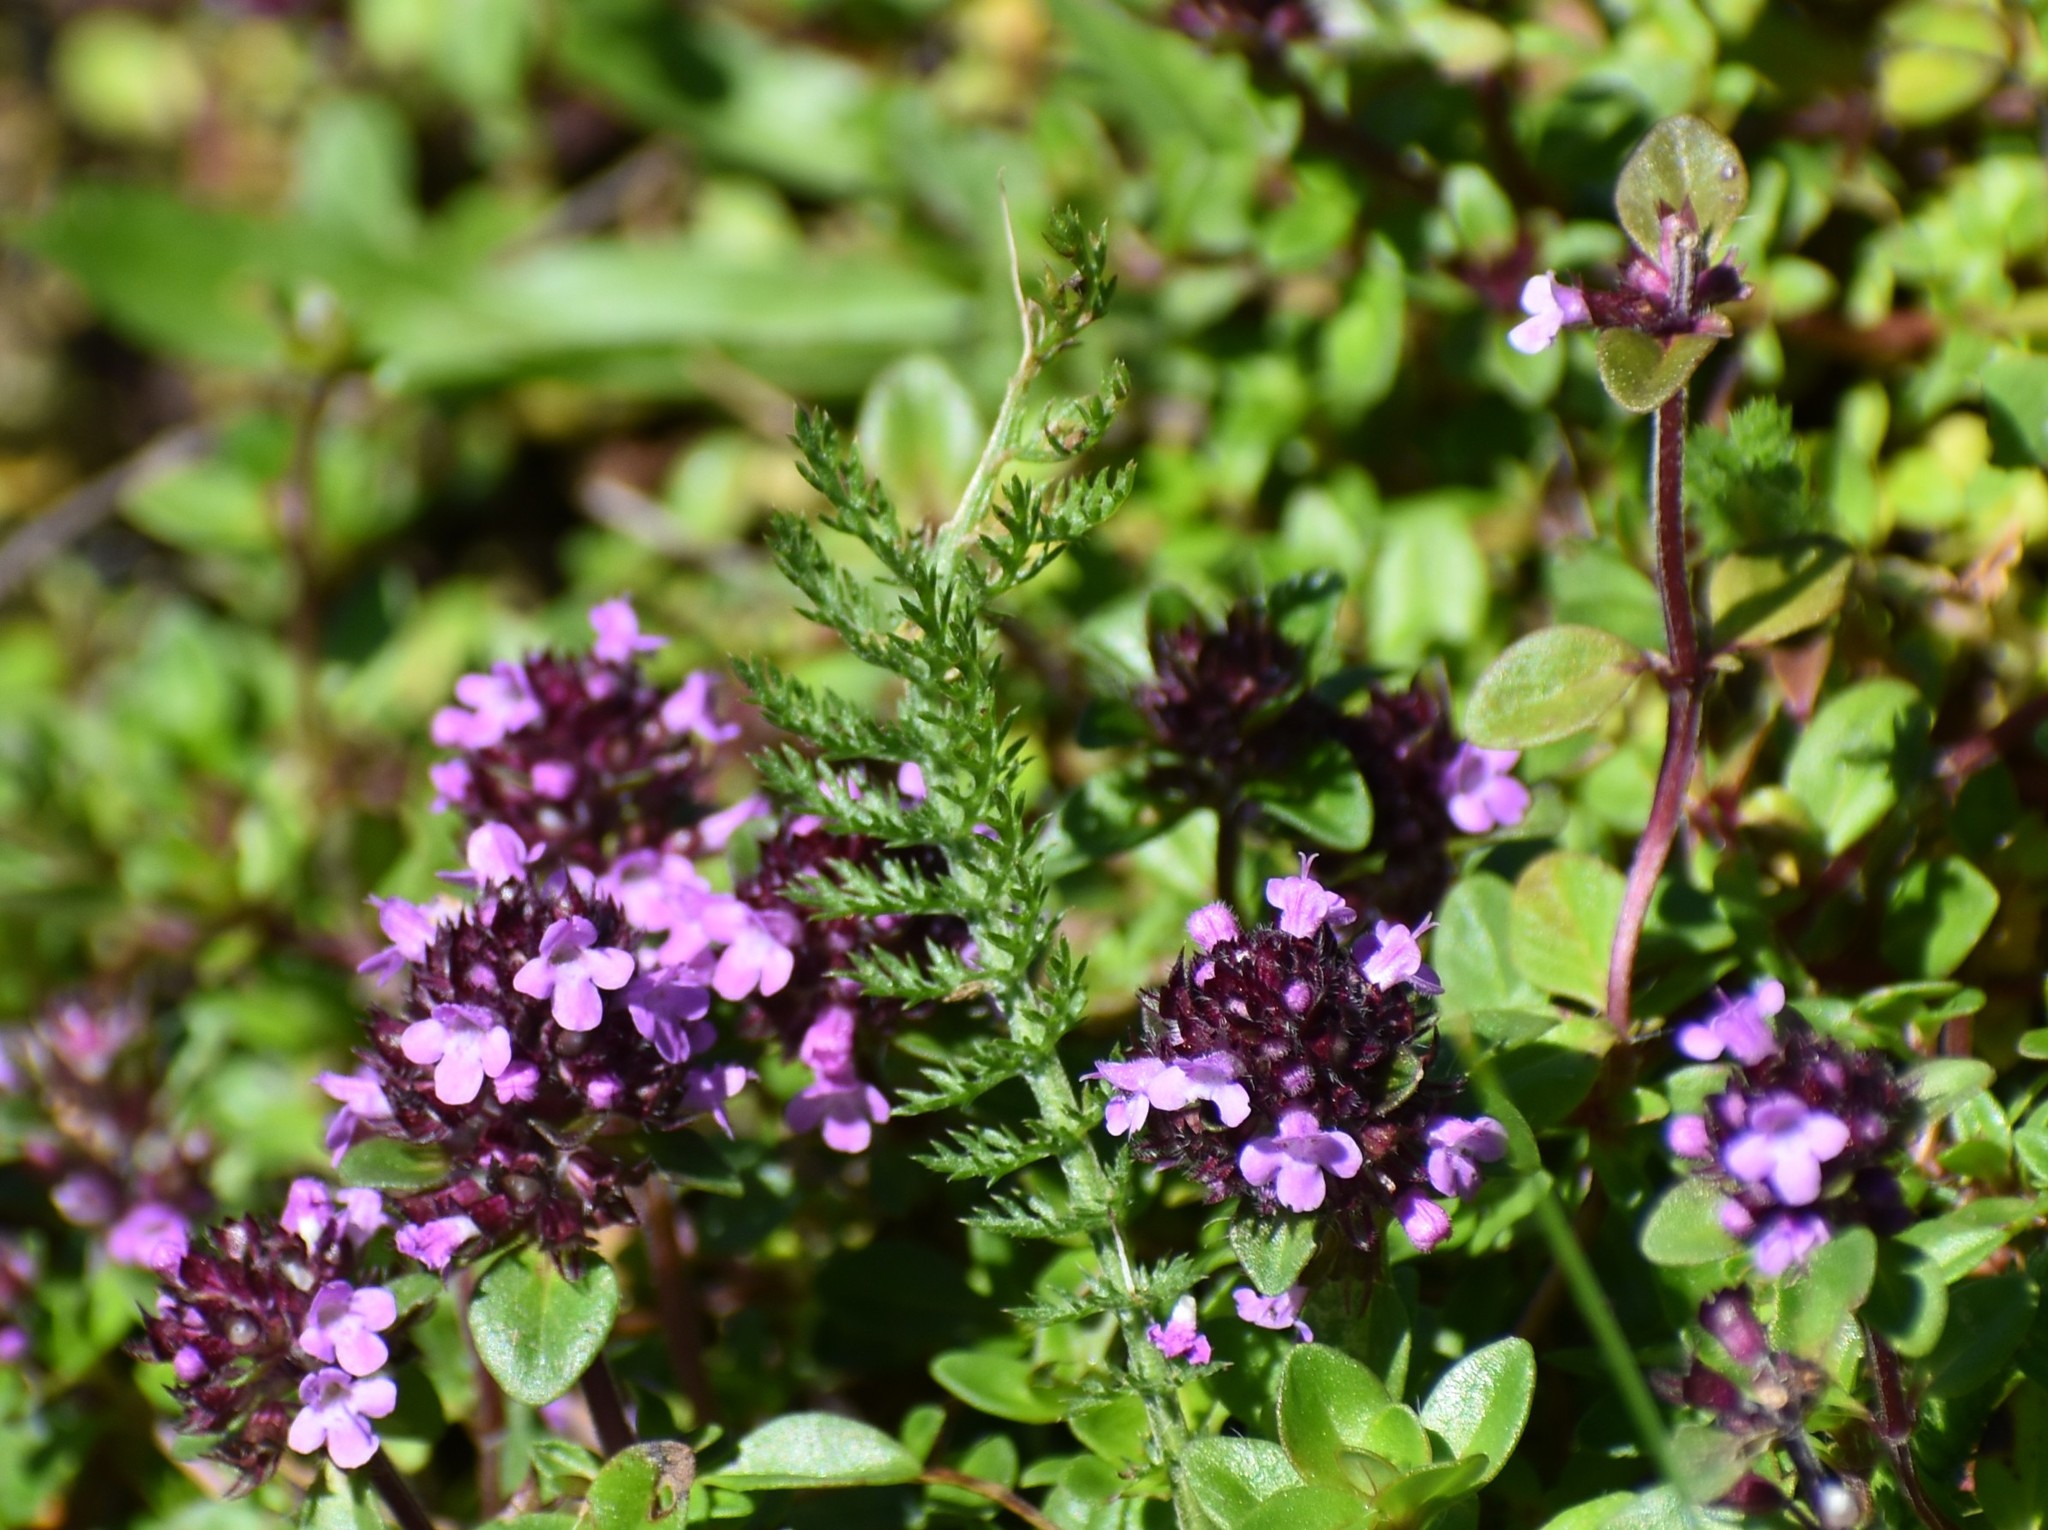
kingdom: Plantae
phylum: Tracheophyta
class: Magnoliopsida
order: Lamiales
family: Lamiaceae
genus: Thymus
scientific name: Thymus pulegioides
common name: Large thyme
